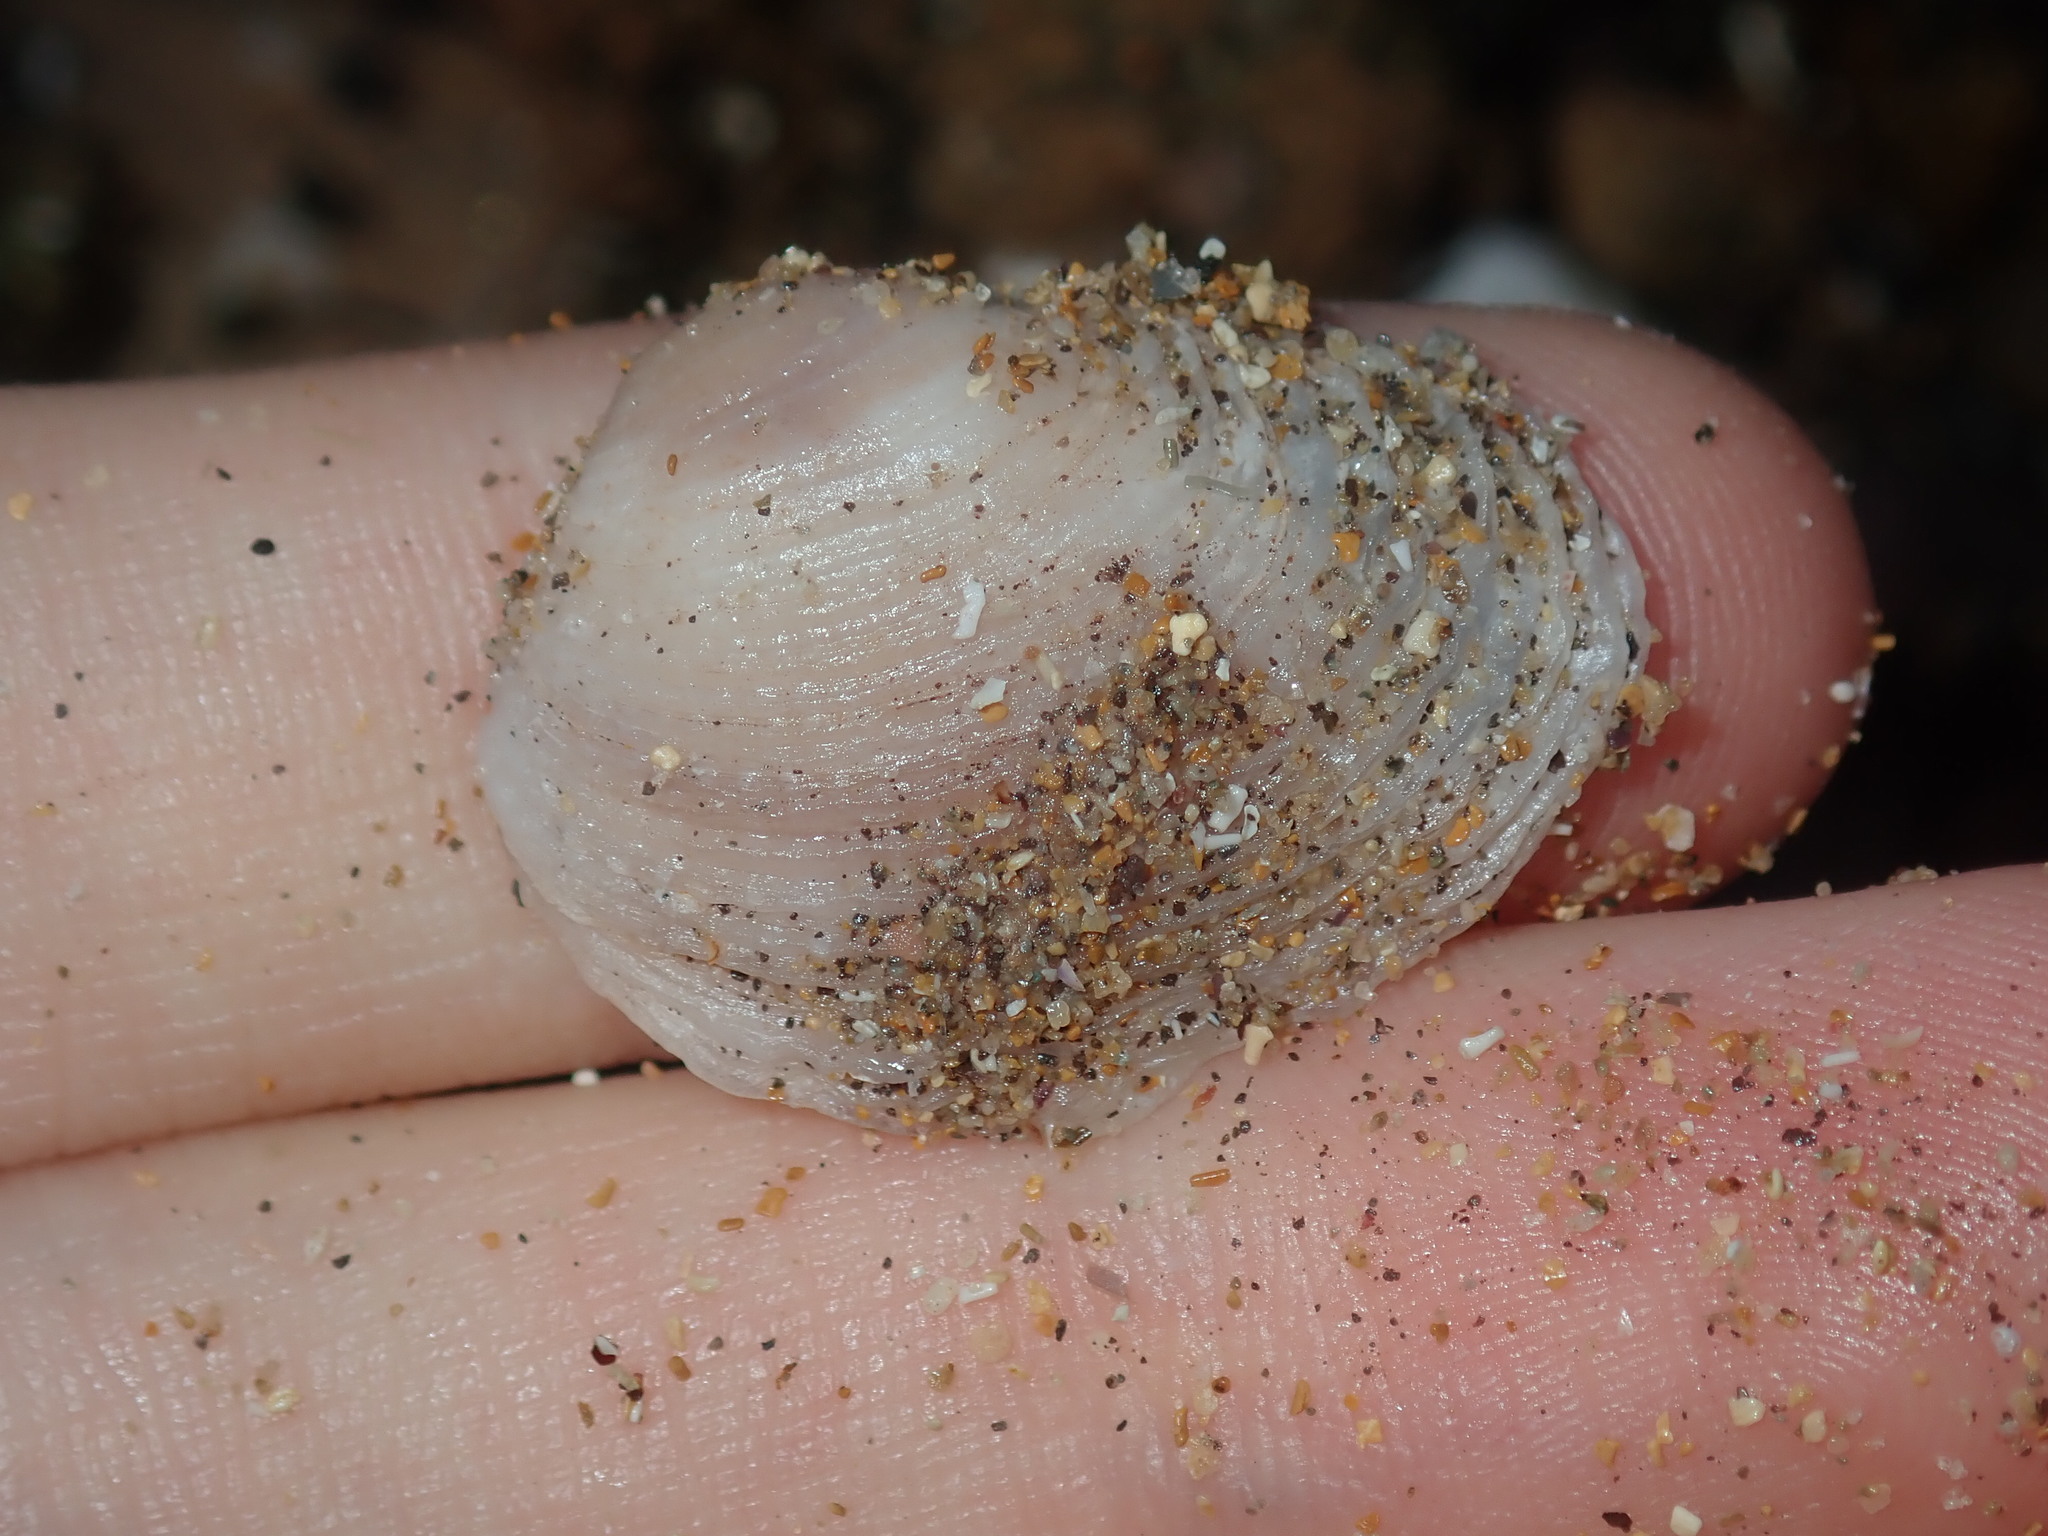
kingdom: Animalia
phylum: Mollusca
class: Bivalvia
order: Venerida
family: Veneridae
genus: Irus
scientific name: Irus crenatus
